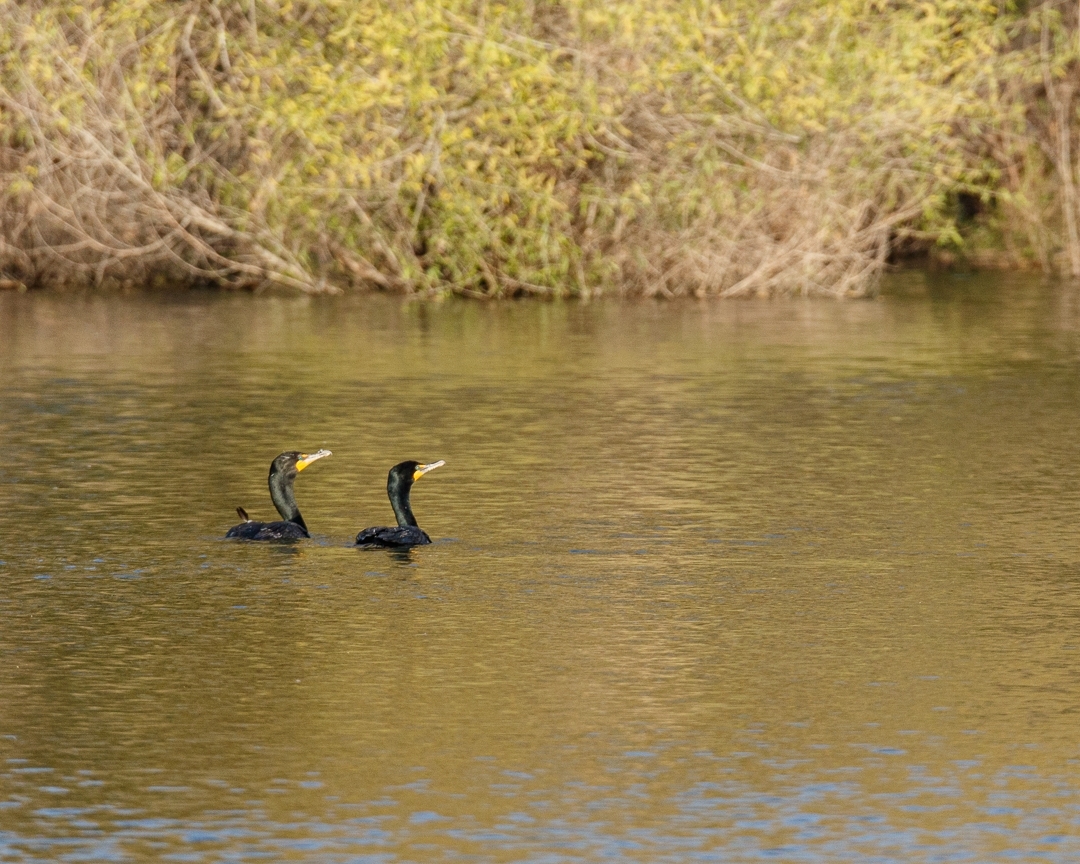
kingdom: Animalia
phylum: Chordata
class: Aves
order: Suliformes
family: Phalacrocoracidae
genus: Phalacrocorax
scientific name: Phalacrocorax auritus
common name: Double-crested cormorant
